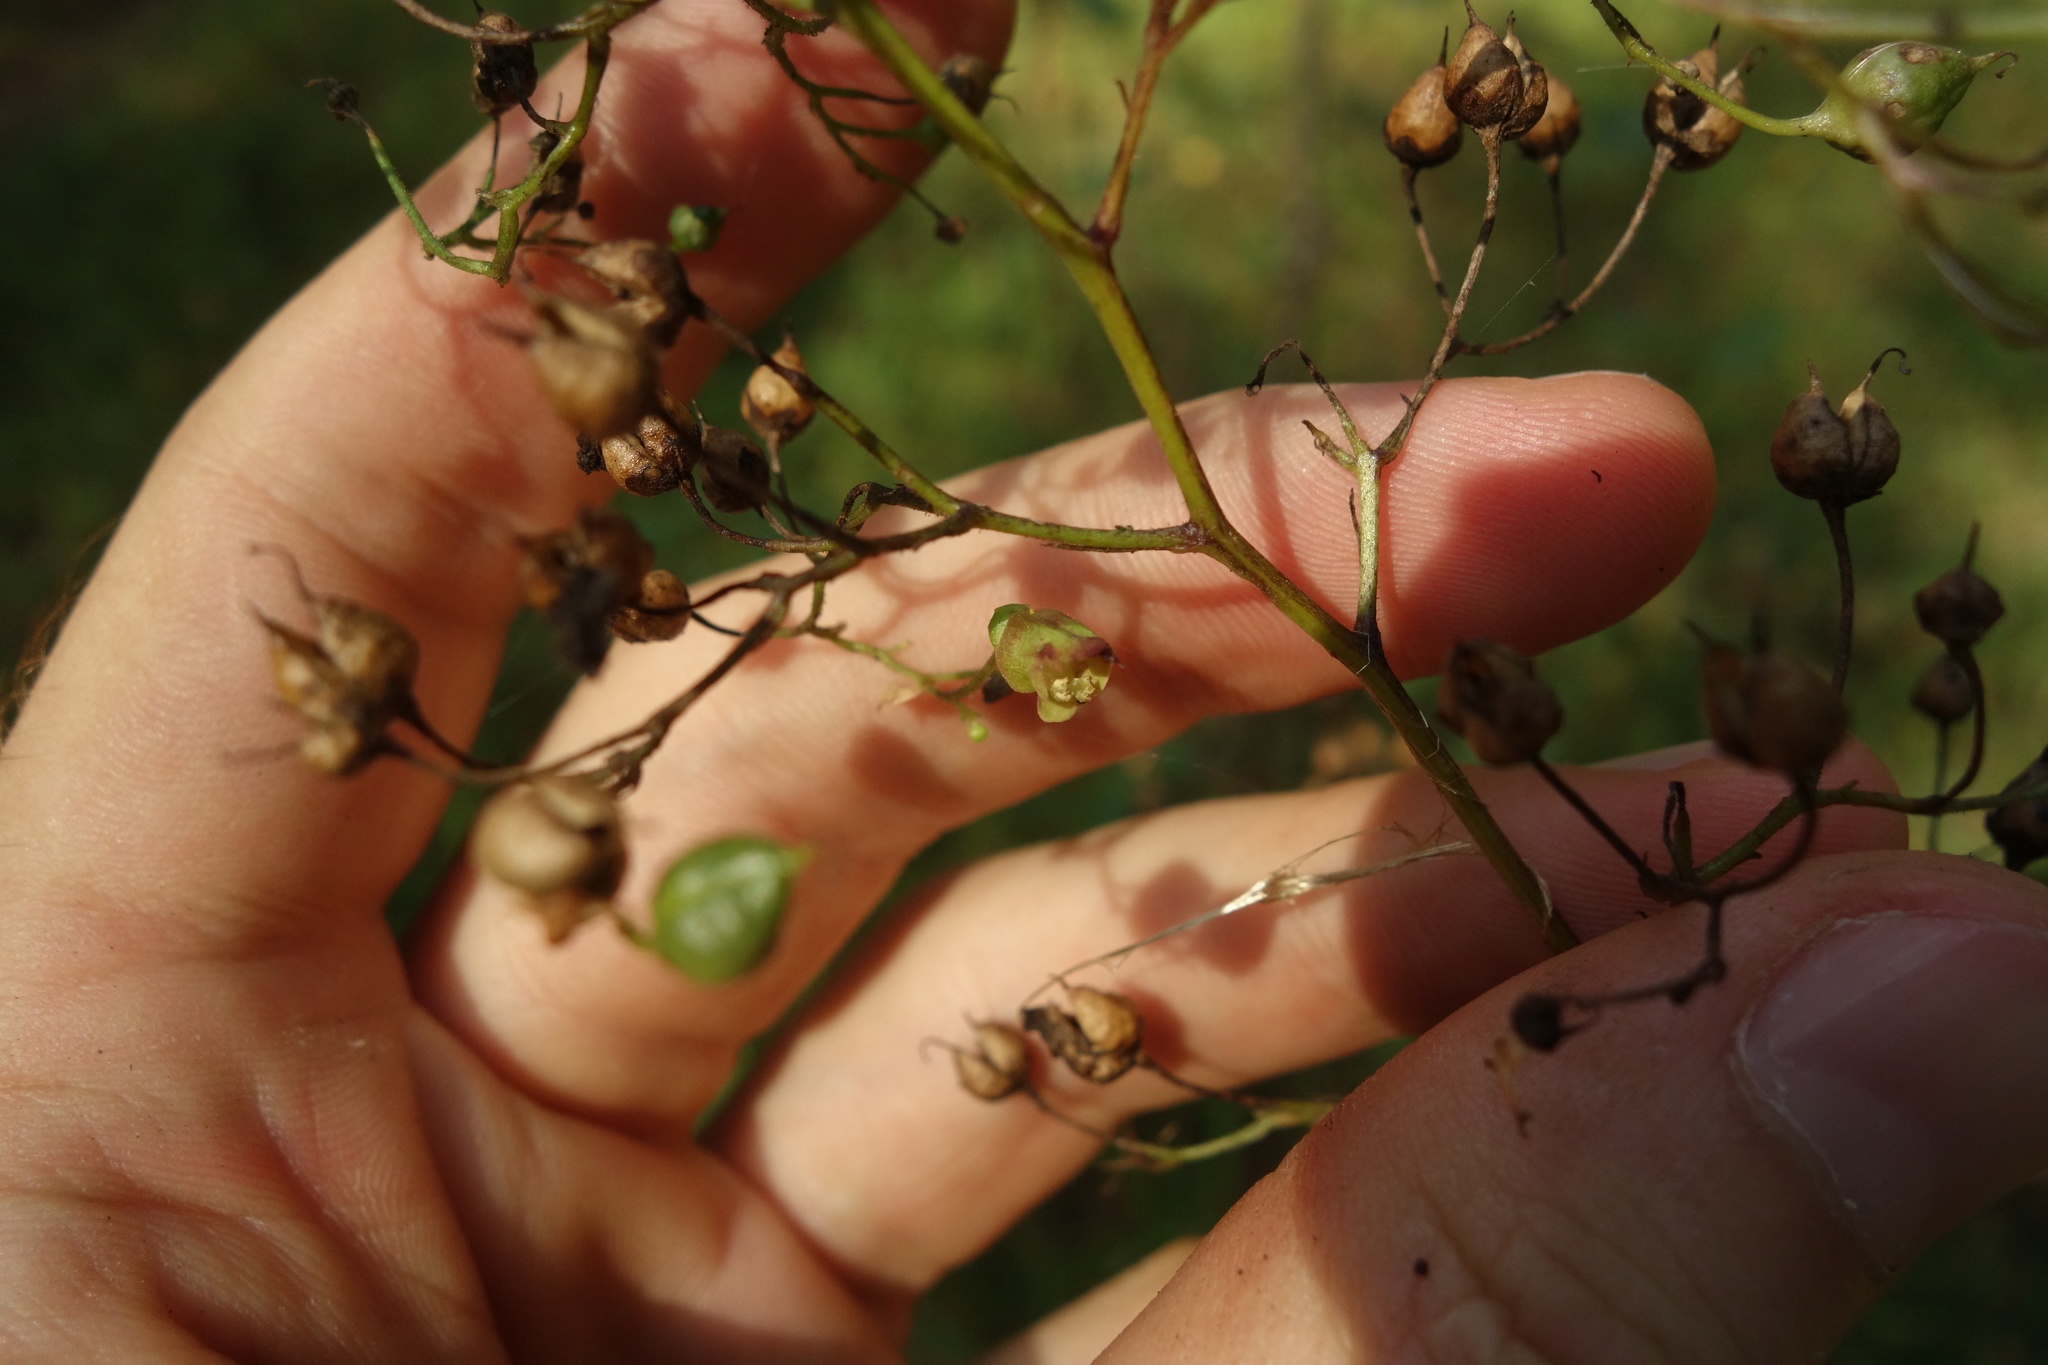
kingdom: Plantae
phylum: Tracheophyta
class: Magnoliopsida
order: Lamiales
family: Scrophulariaceae
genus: Scrophularia
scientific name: Scrophularia nodosa
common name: Common figwort
